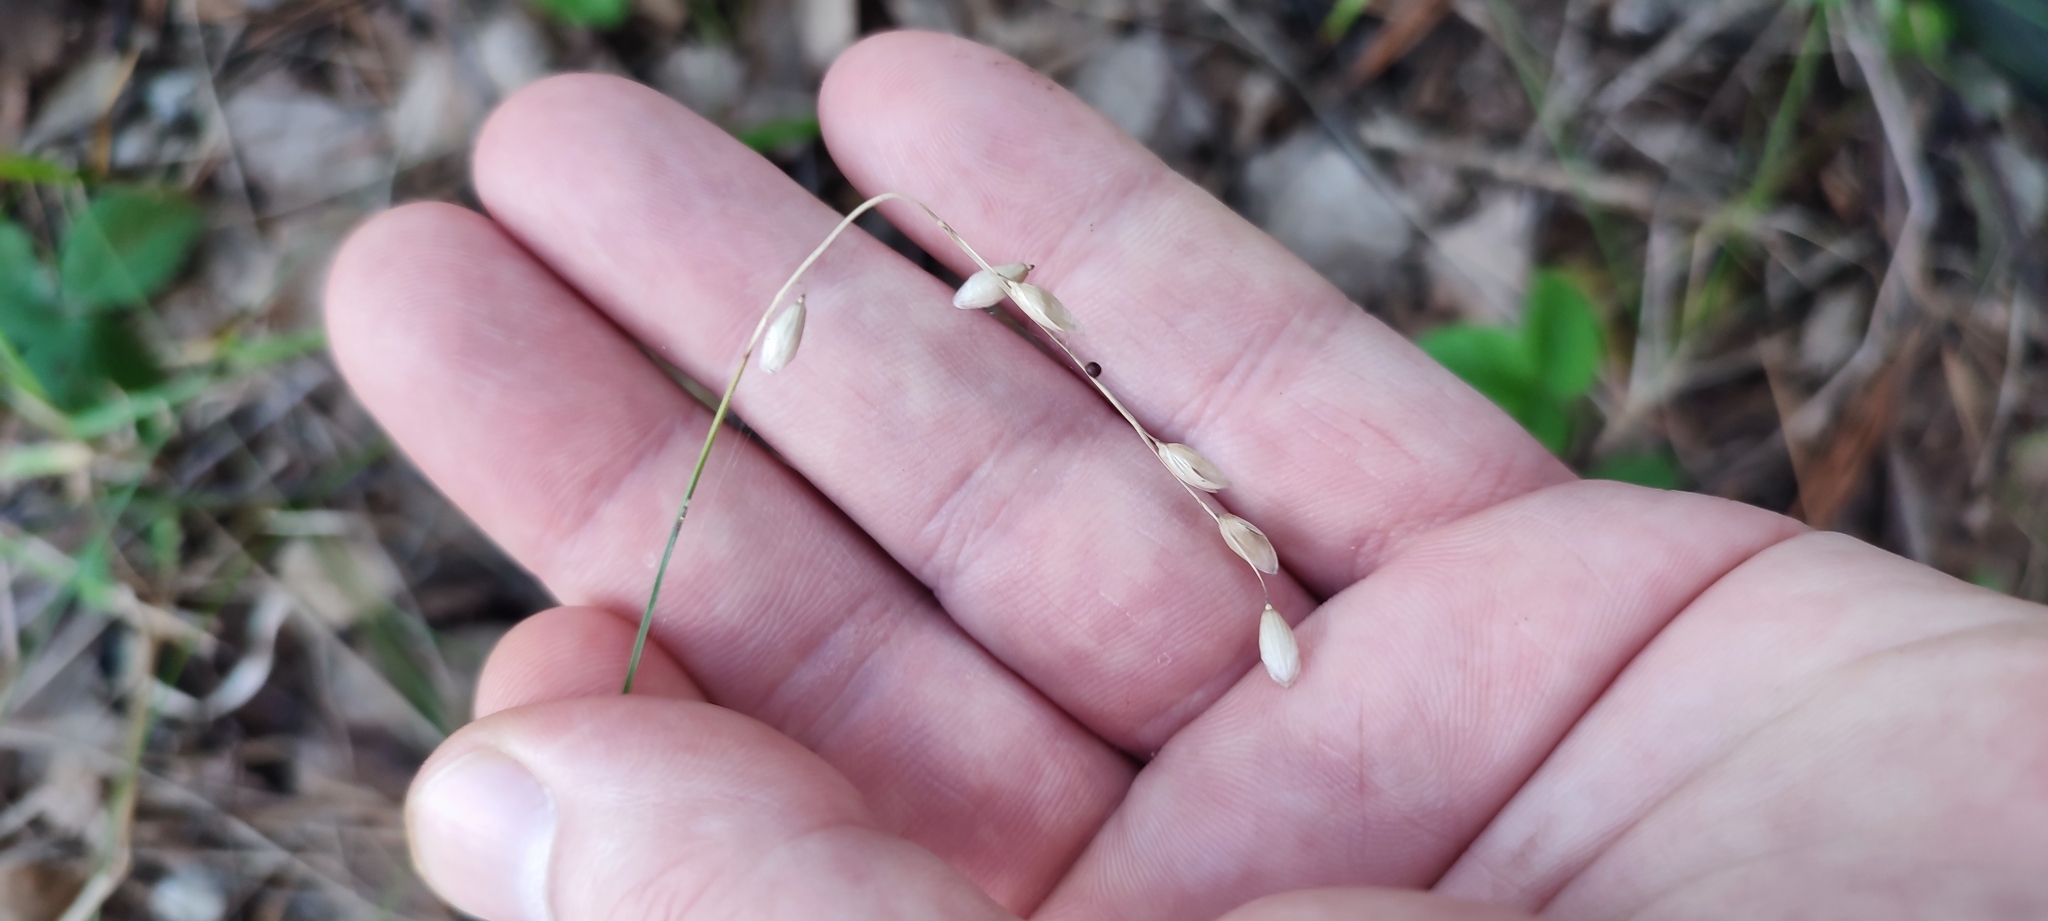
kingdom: Plantae
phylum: Tracheophyta
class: Liliopsida
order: Poales
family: Poaceae
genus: Melica
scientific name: Melica nutans
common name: Mountain melick
